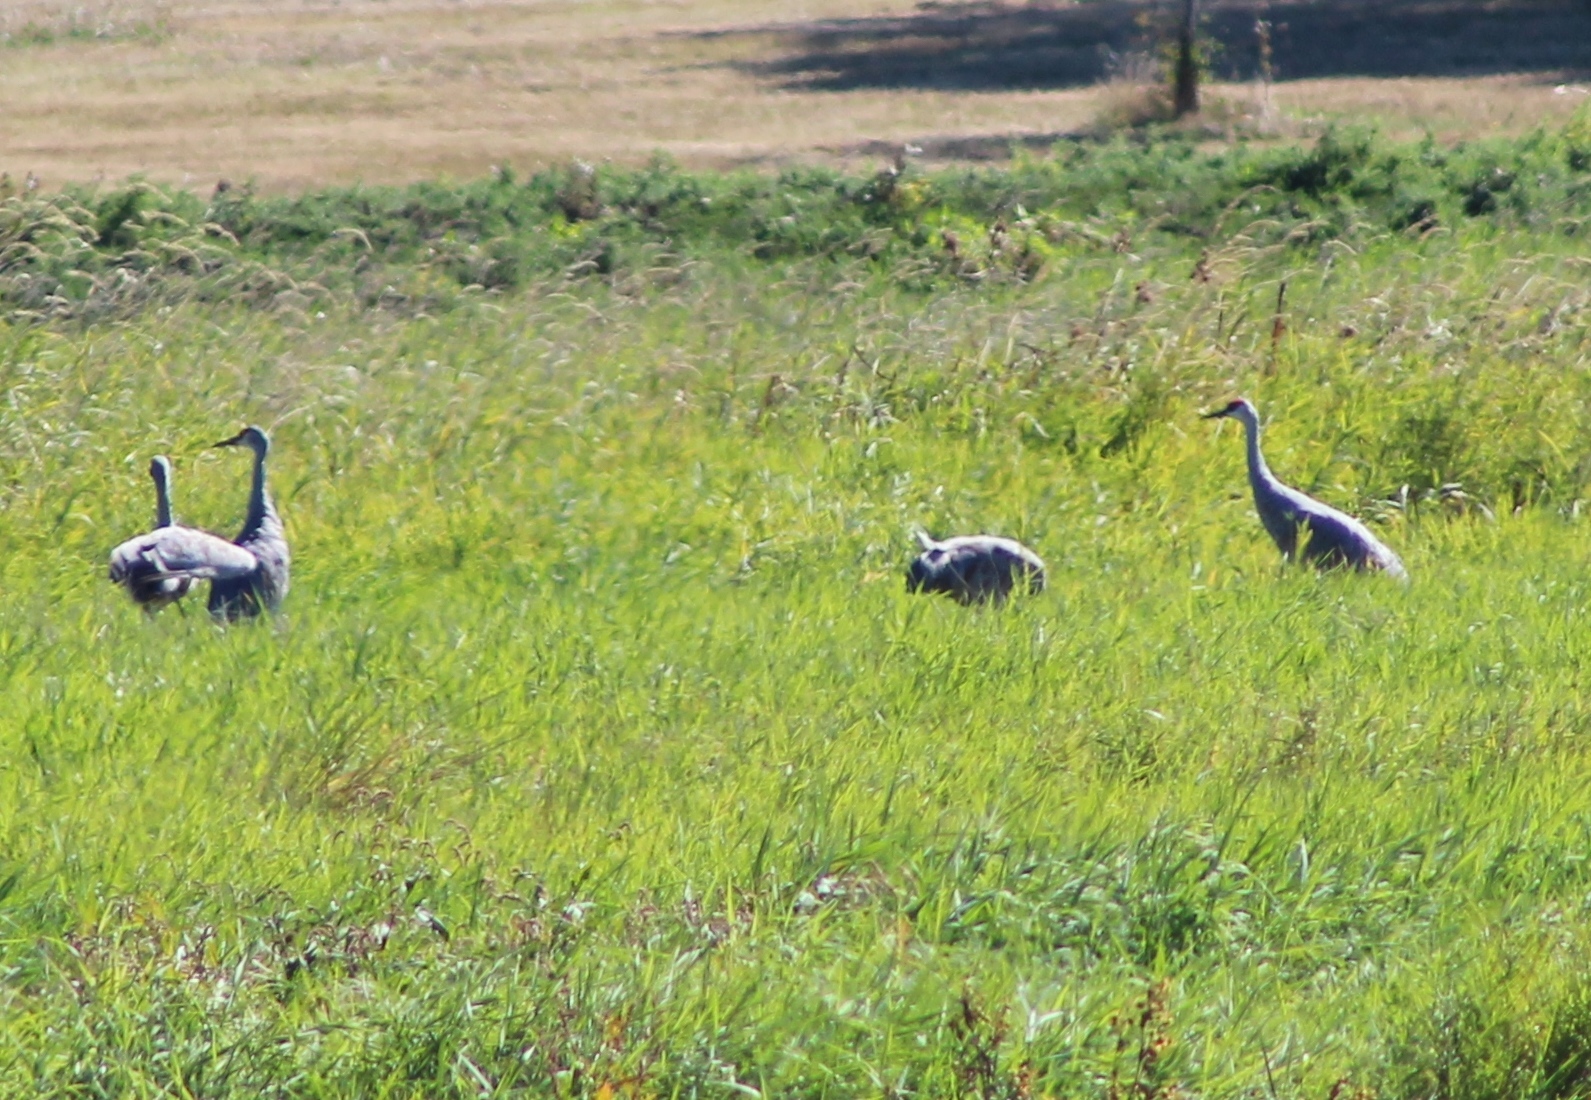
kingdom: Animalia
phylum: Chordata
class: Aves
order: Gruiformes
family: Gruidae
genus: Grus
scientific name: Grus canadensis
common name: Sandhill crane
